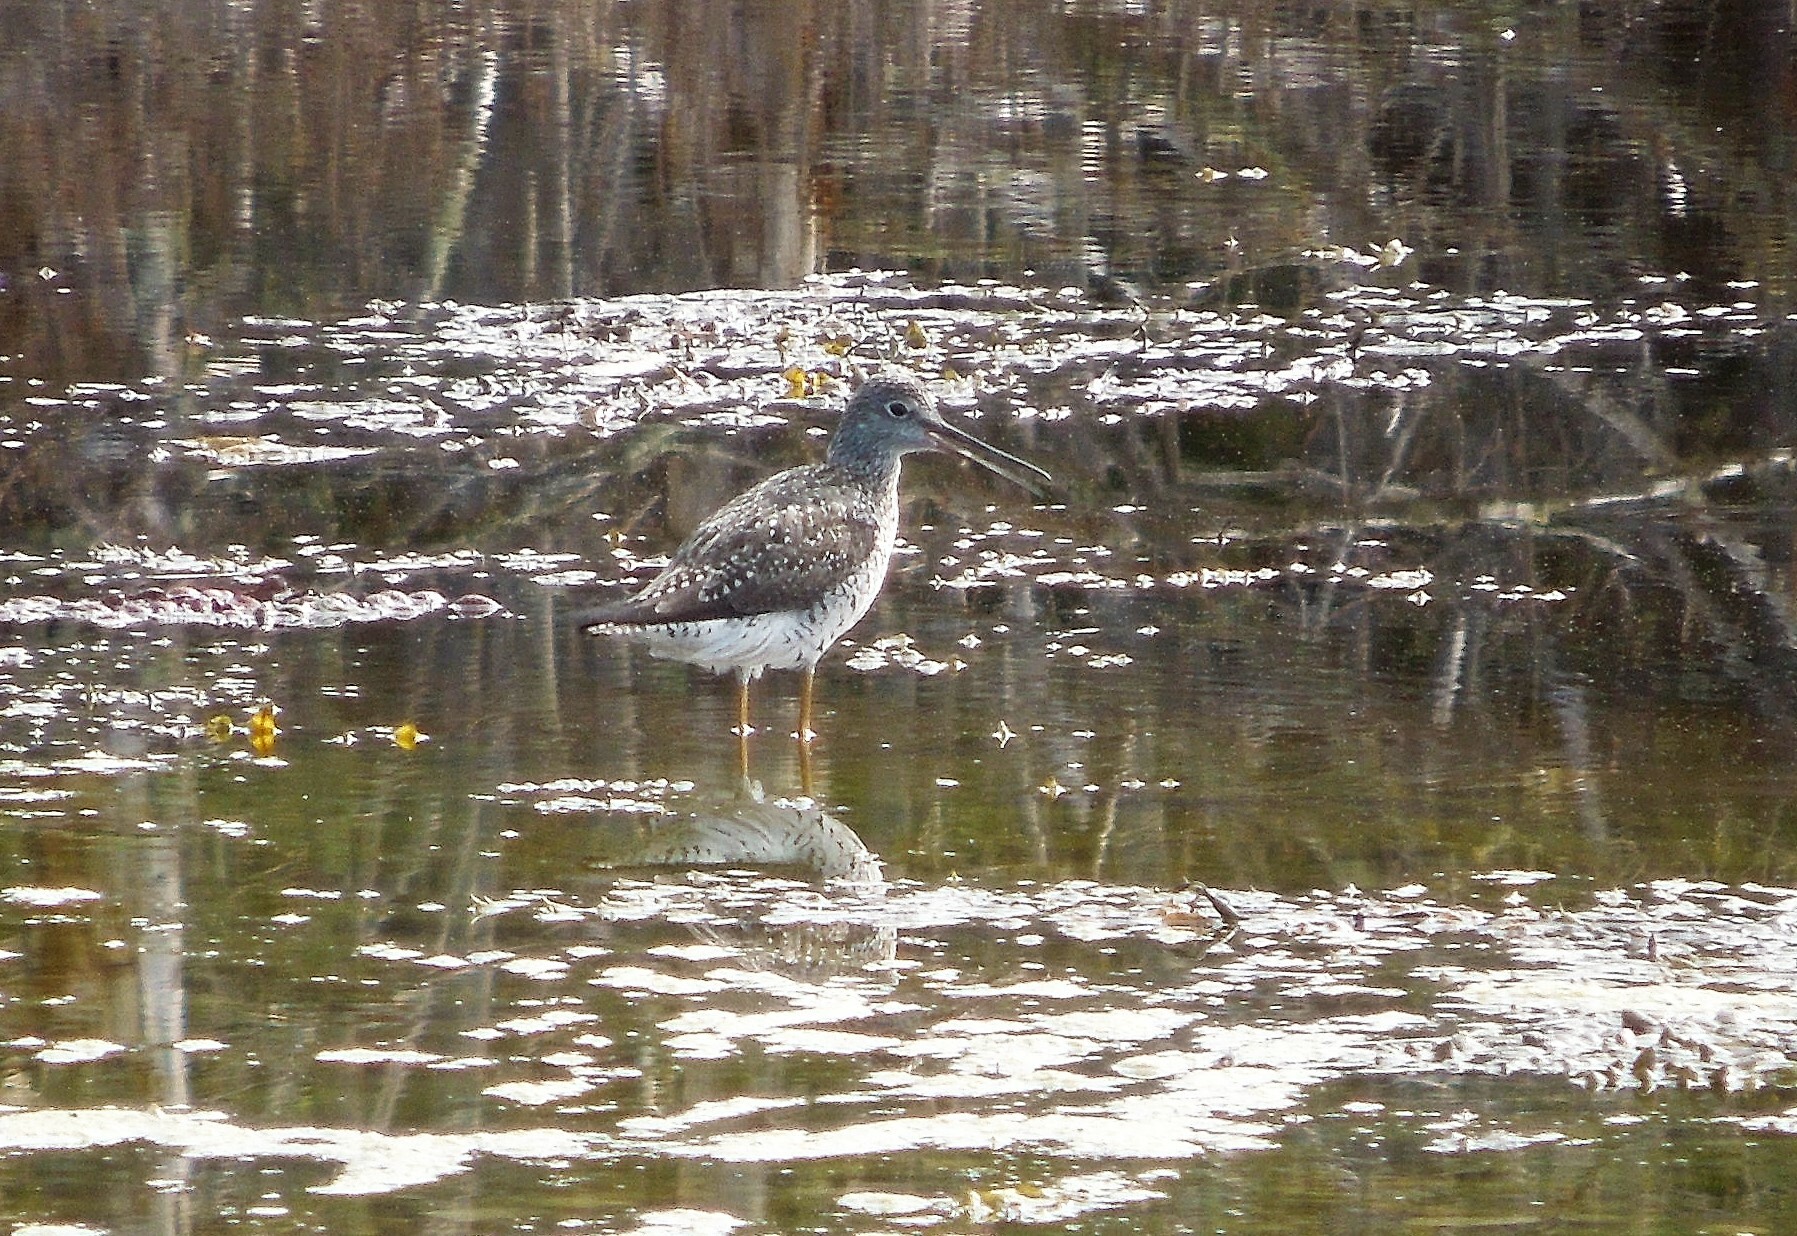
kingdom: Animalia
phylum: Chordata
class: Aves
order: Charadriiformes
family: Scolopacidae
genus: Tringa
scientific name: Tringa melanoleuca
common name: Greater yellowlegs
